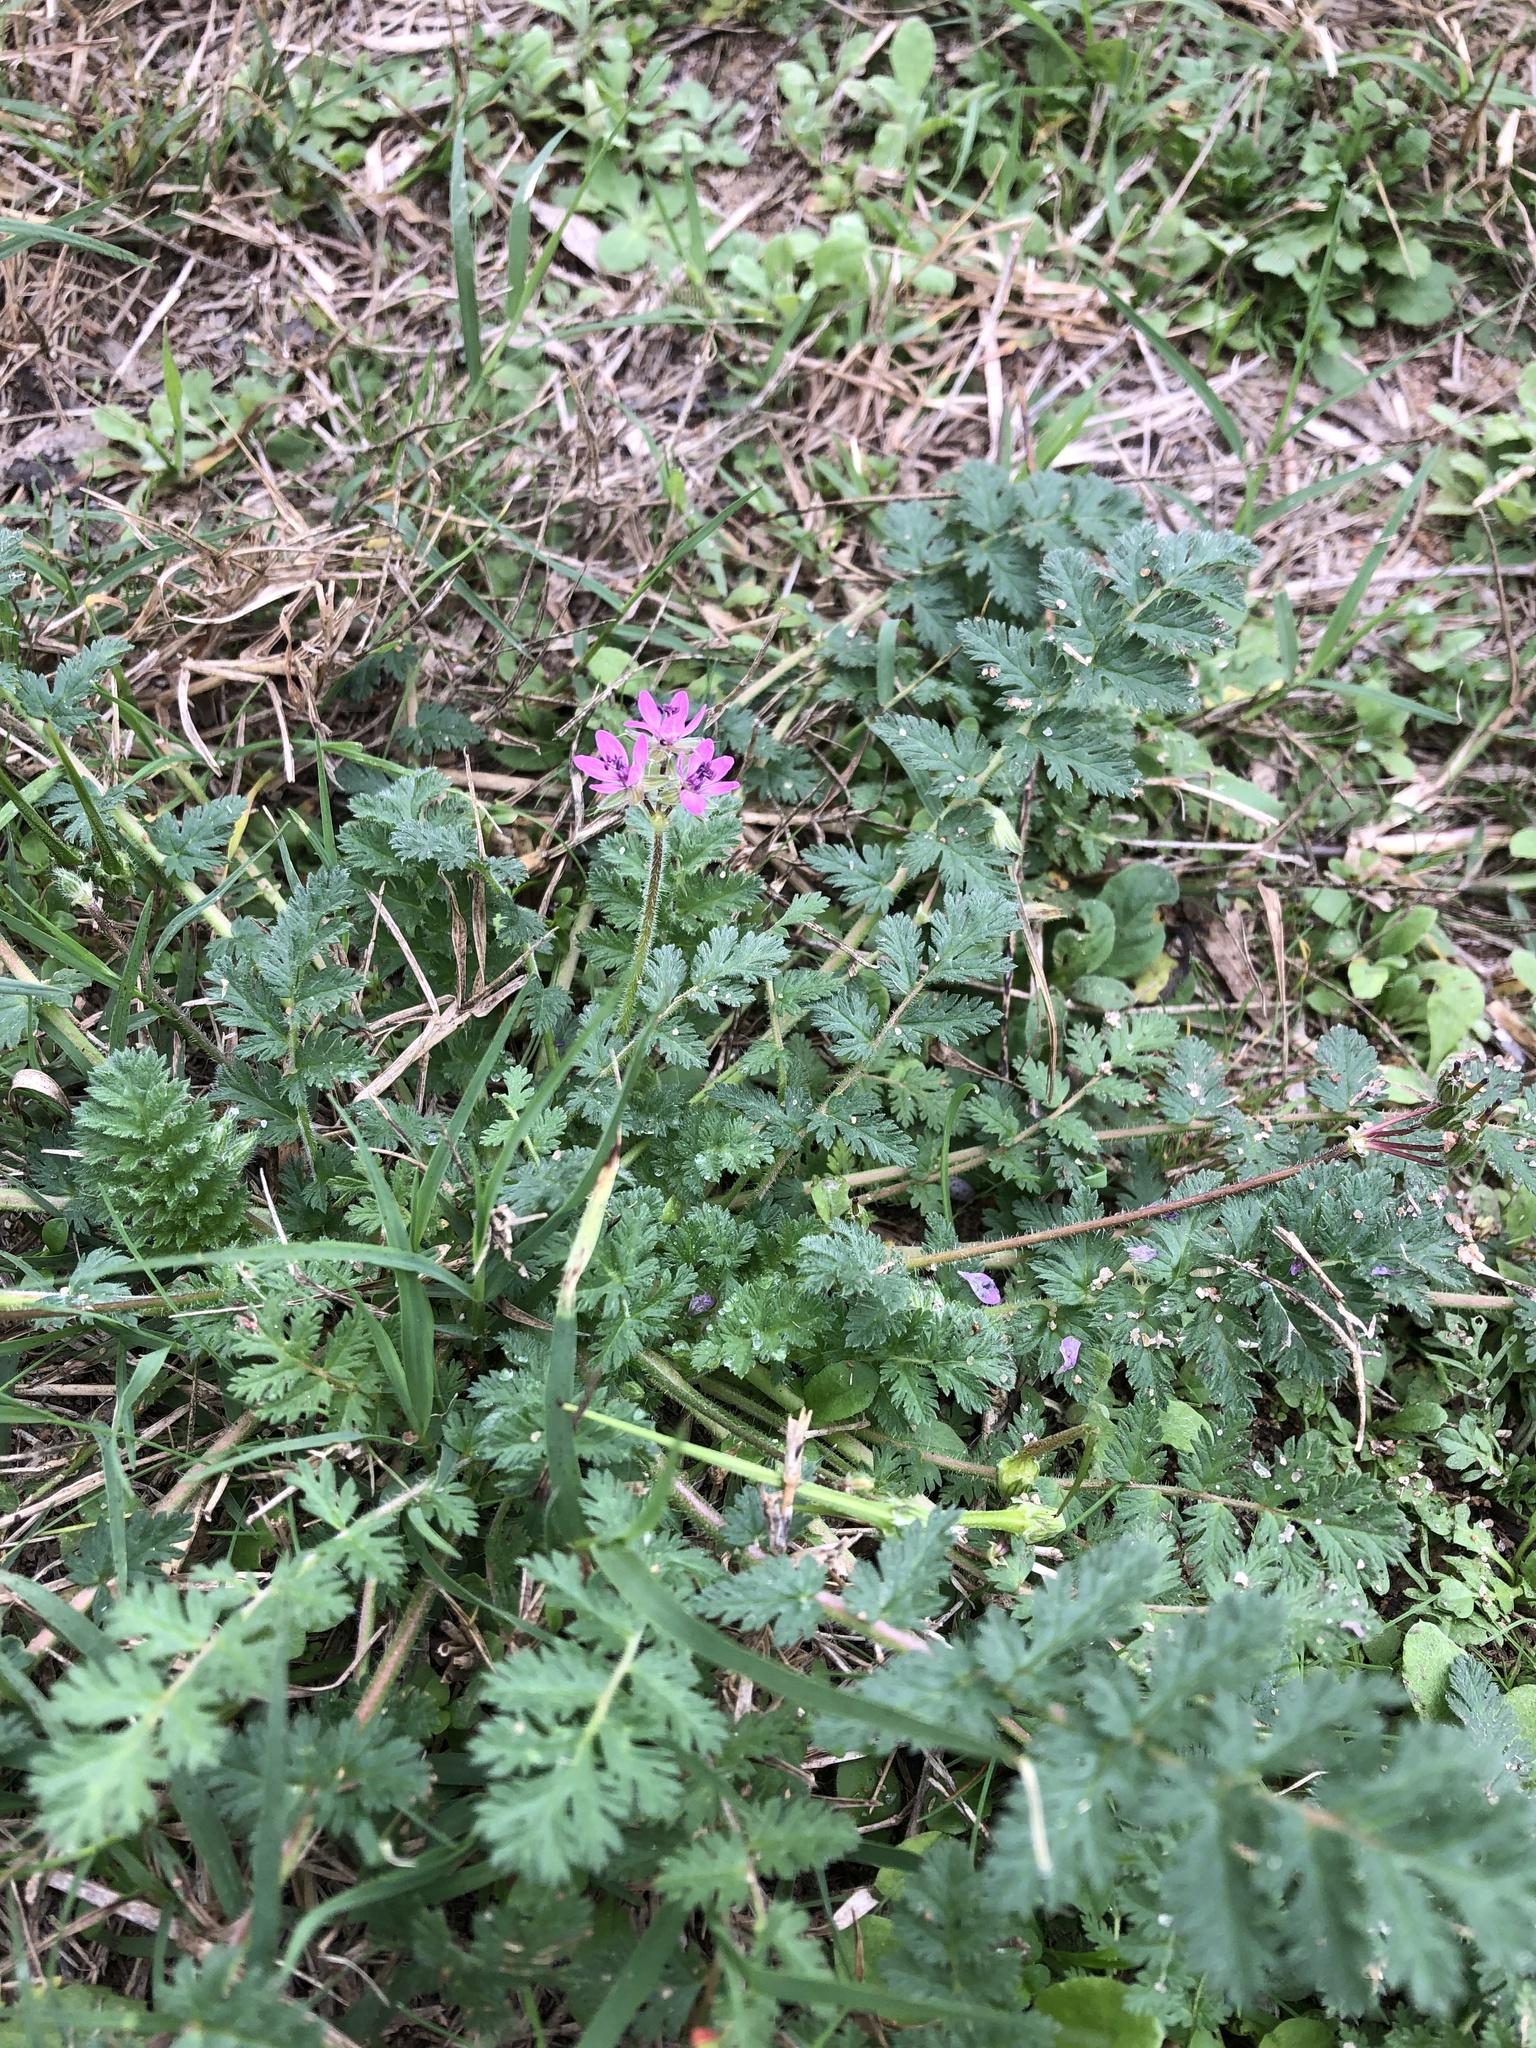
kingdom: Plantae
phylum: Tracheophyta
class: Magnoliopsida
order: Geraniales
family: Geraniaceae
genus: Erodium
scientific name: Erodium cicutarium
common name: Common stork's-bill
